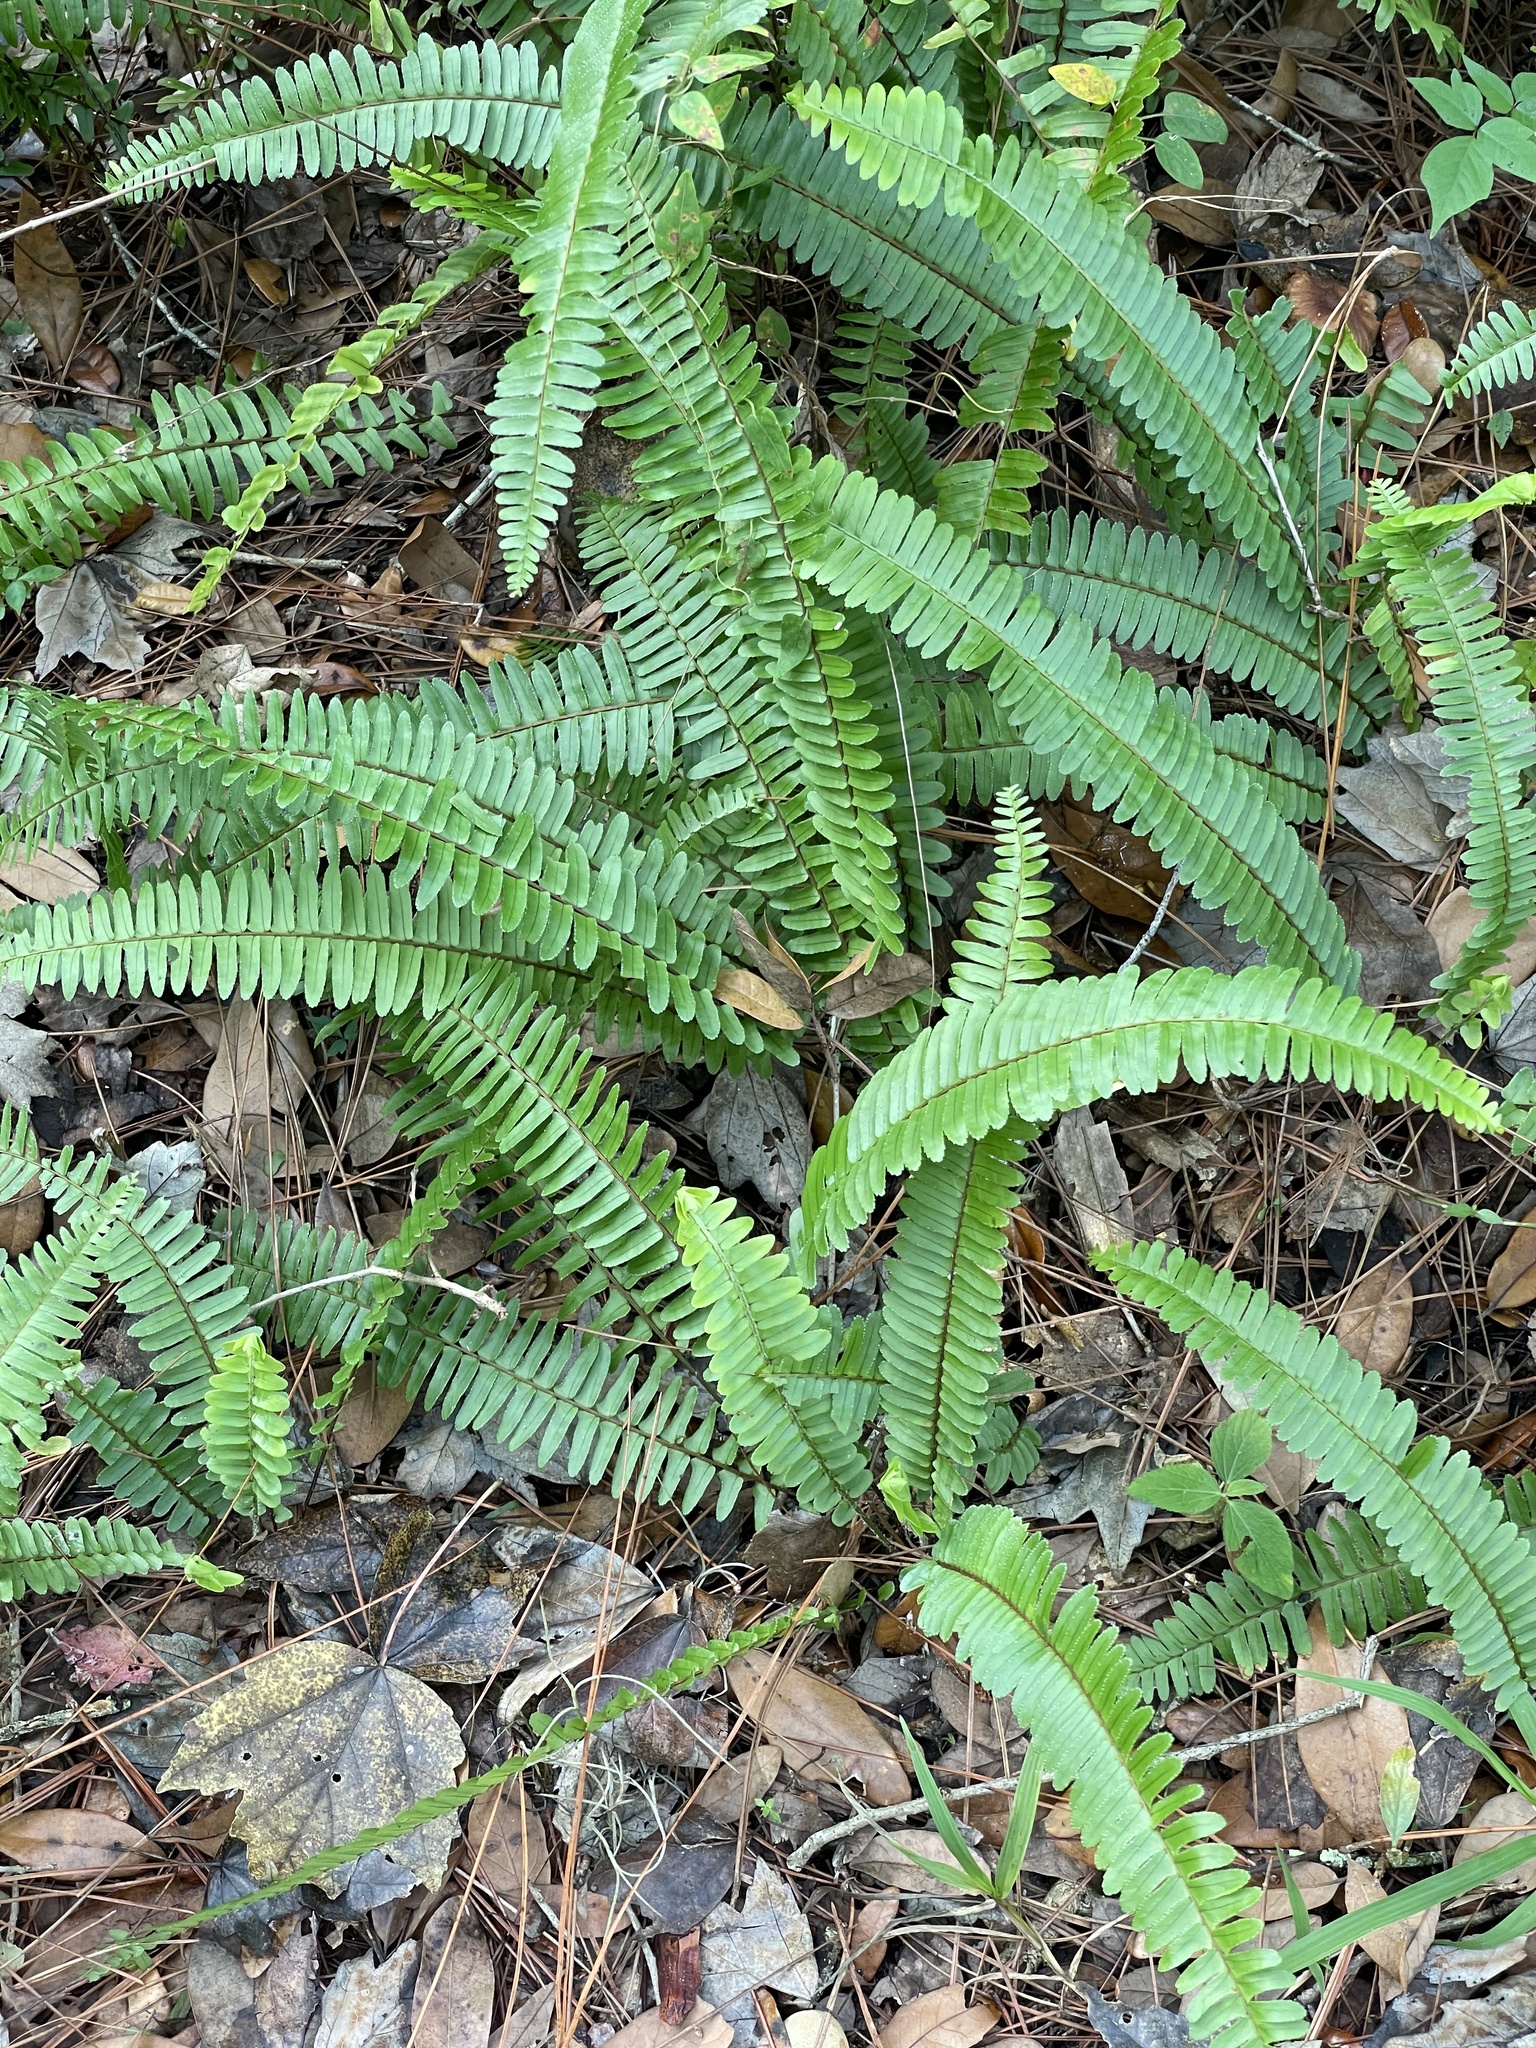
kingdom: Plantae
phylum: Tracheophyta
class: Polypodiopsida
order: Polypodiales
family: Nephrolepidaceae
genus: Nephrolepis
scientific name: Nephrolepis cordifolia
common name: Narrow swordfern
